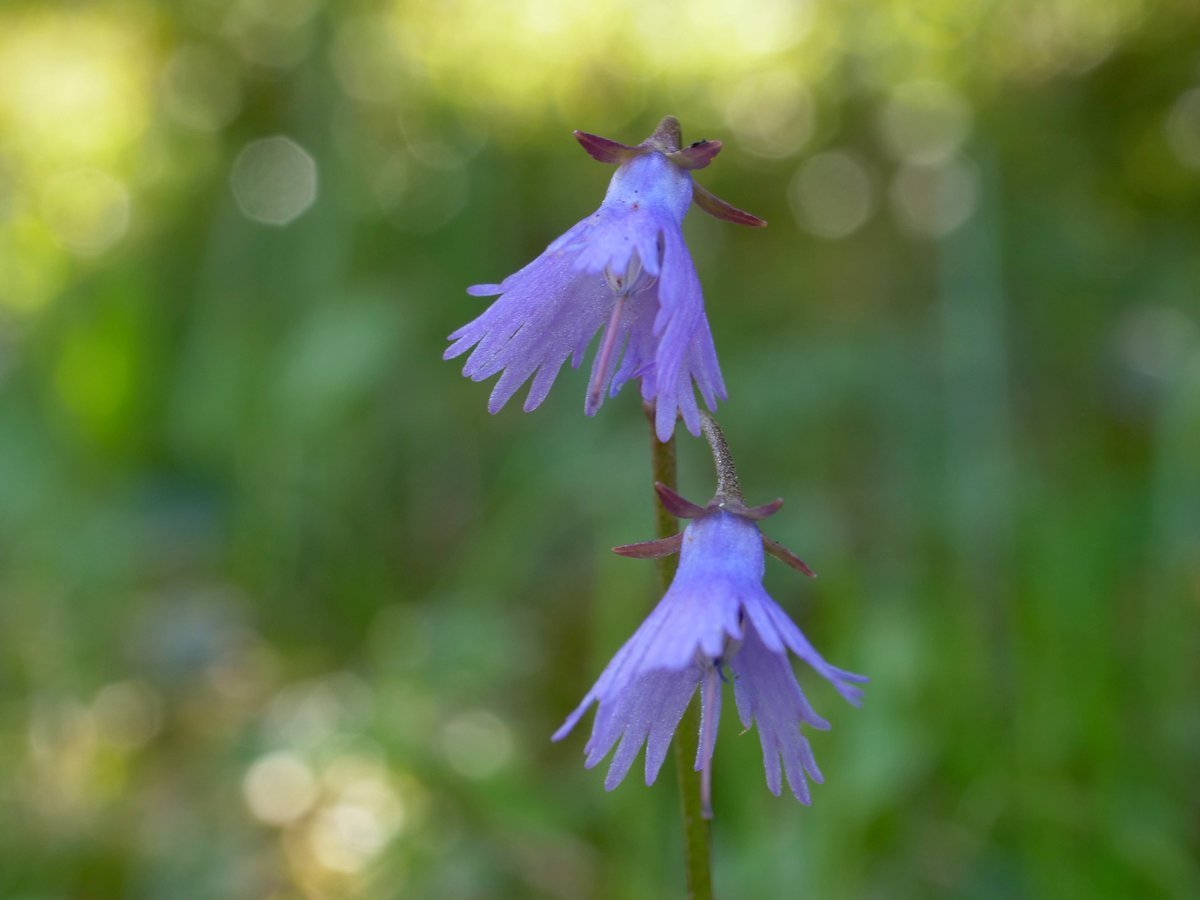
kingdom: Plantae
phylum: Tracheophyta
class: Magnoliopsida
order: Ericales
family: Primulaceae
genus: Soldanella
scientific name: Soldanella alpina
